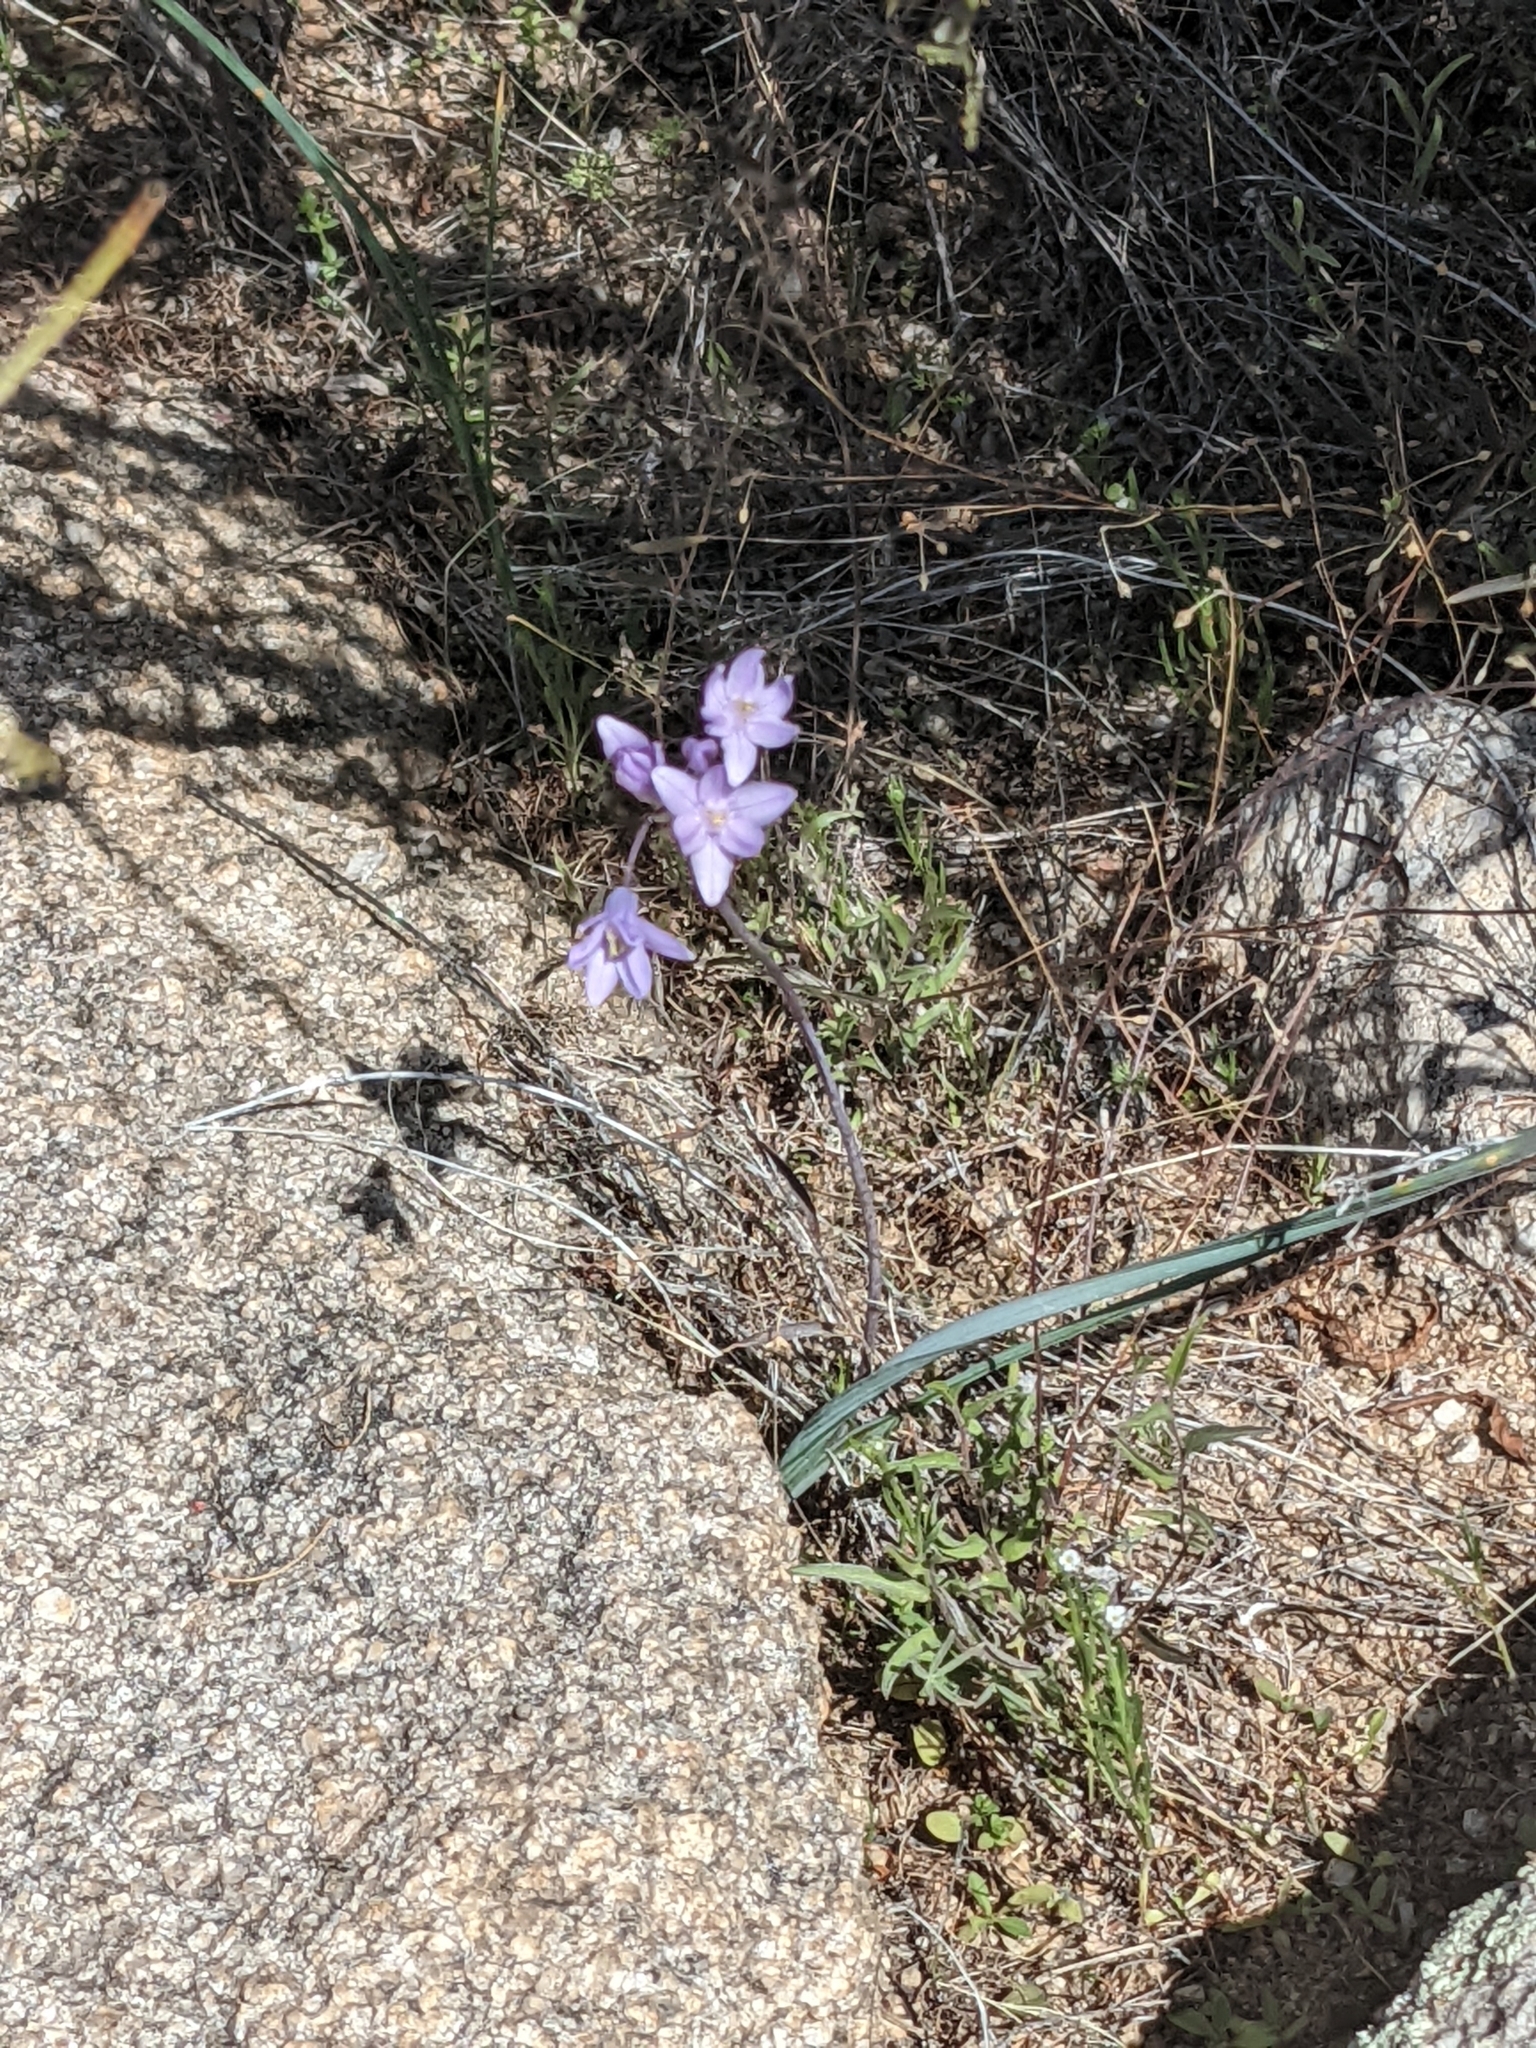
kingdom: Plantae
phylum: Tracheophyta
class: Liliopsida
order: Asparagales
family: Asparagaceae
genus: Dipterostemon
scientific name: Dipterostemon capitatus
